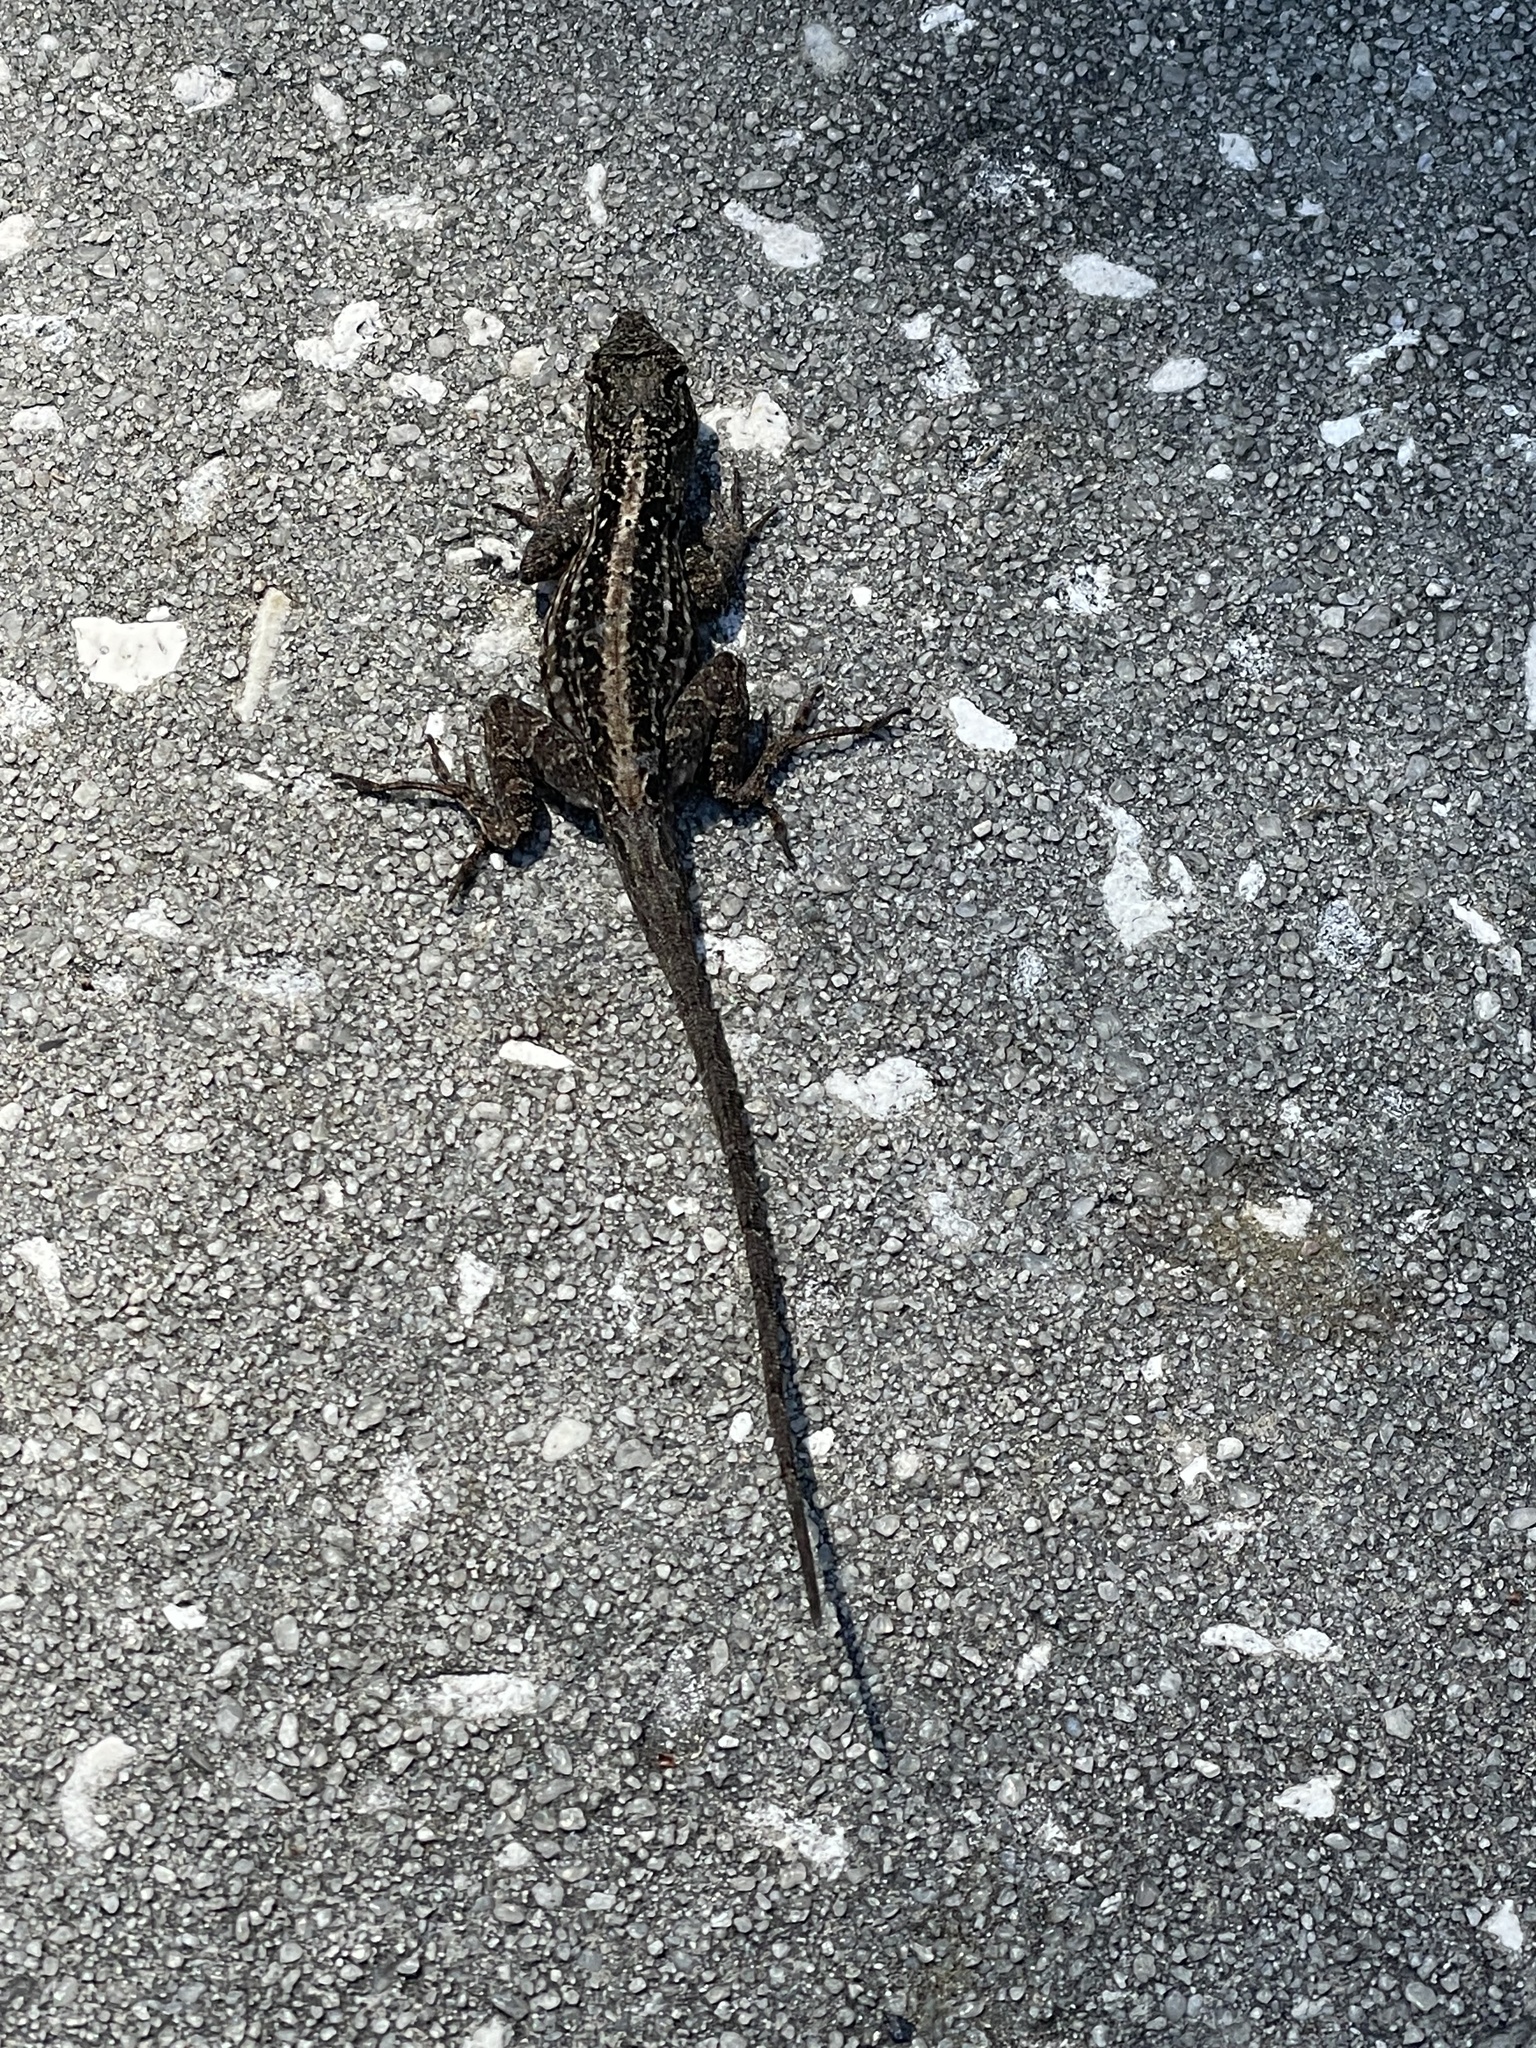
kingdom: Animalia
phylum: Chordata
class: Squamata
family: Dactyloidae
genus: Anolis
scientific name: Anolis sagrei
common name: Brown anole
